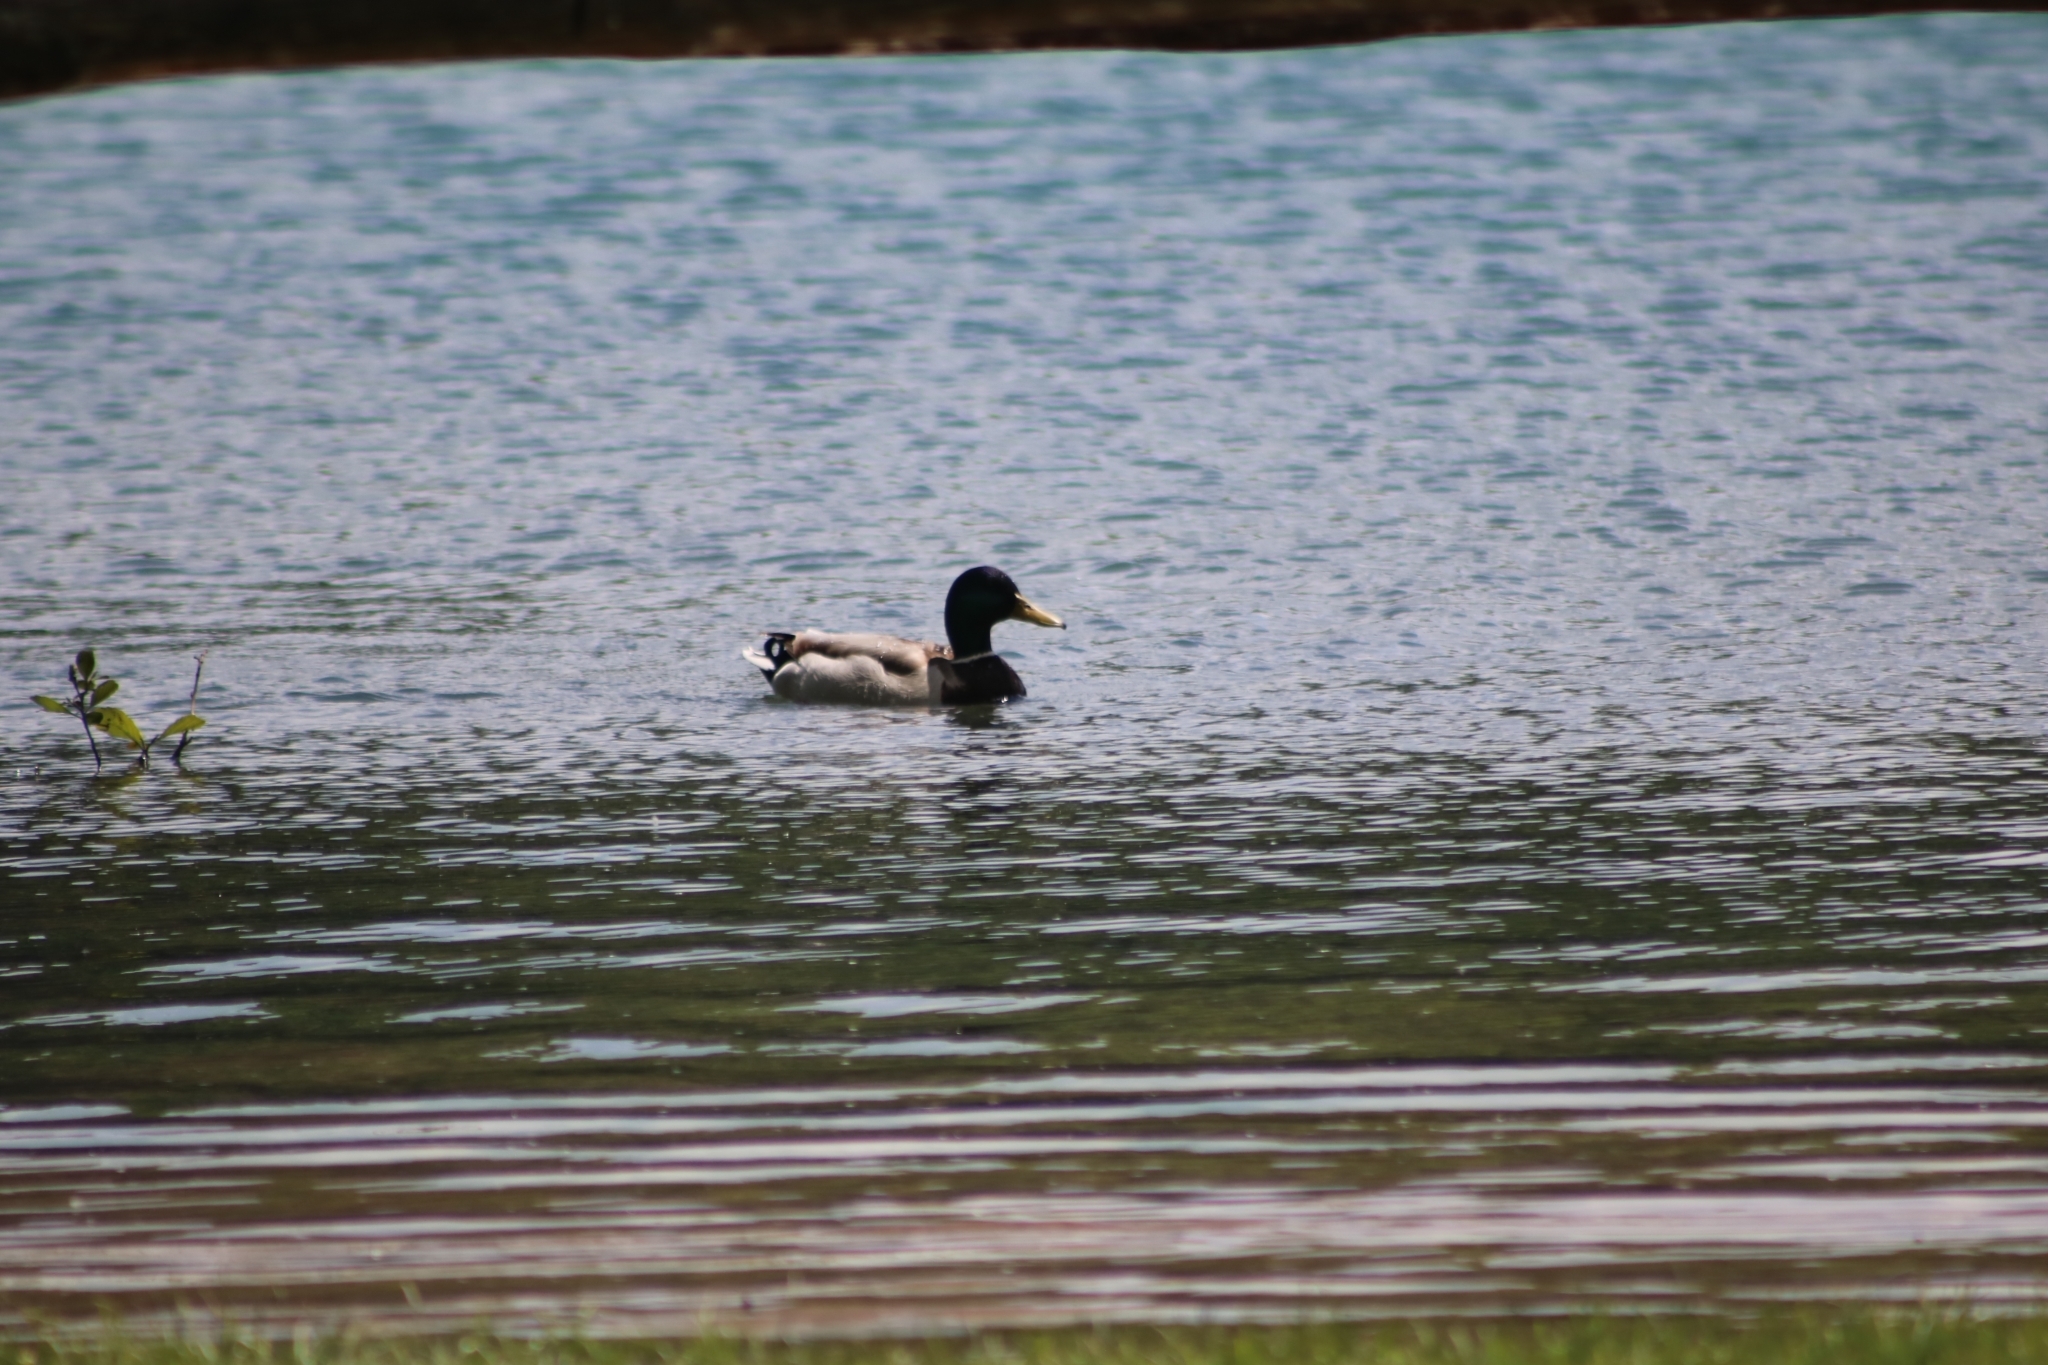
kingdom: Animalia
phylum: Chordata
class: Aves
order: Anseriformes
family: Anatidae
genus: Anas
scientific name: Anas platyrhynchos
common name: Mallard
